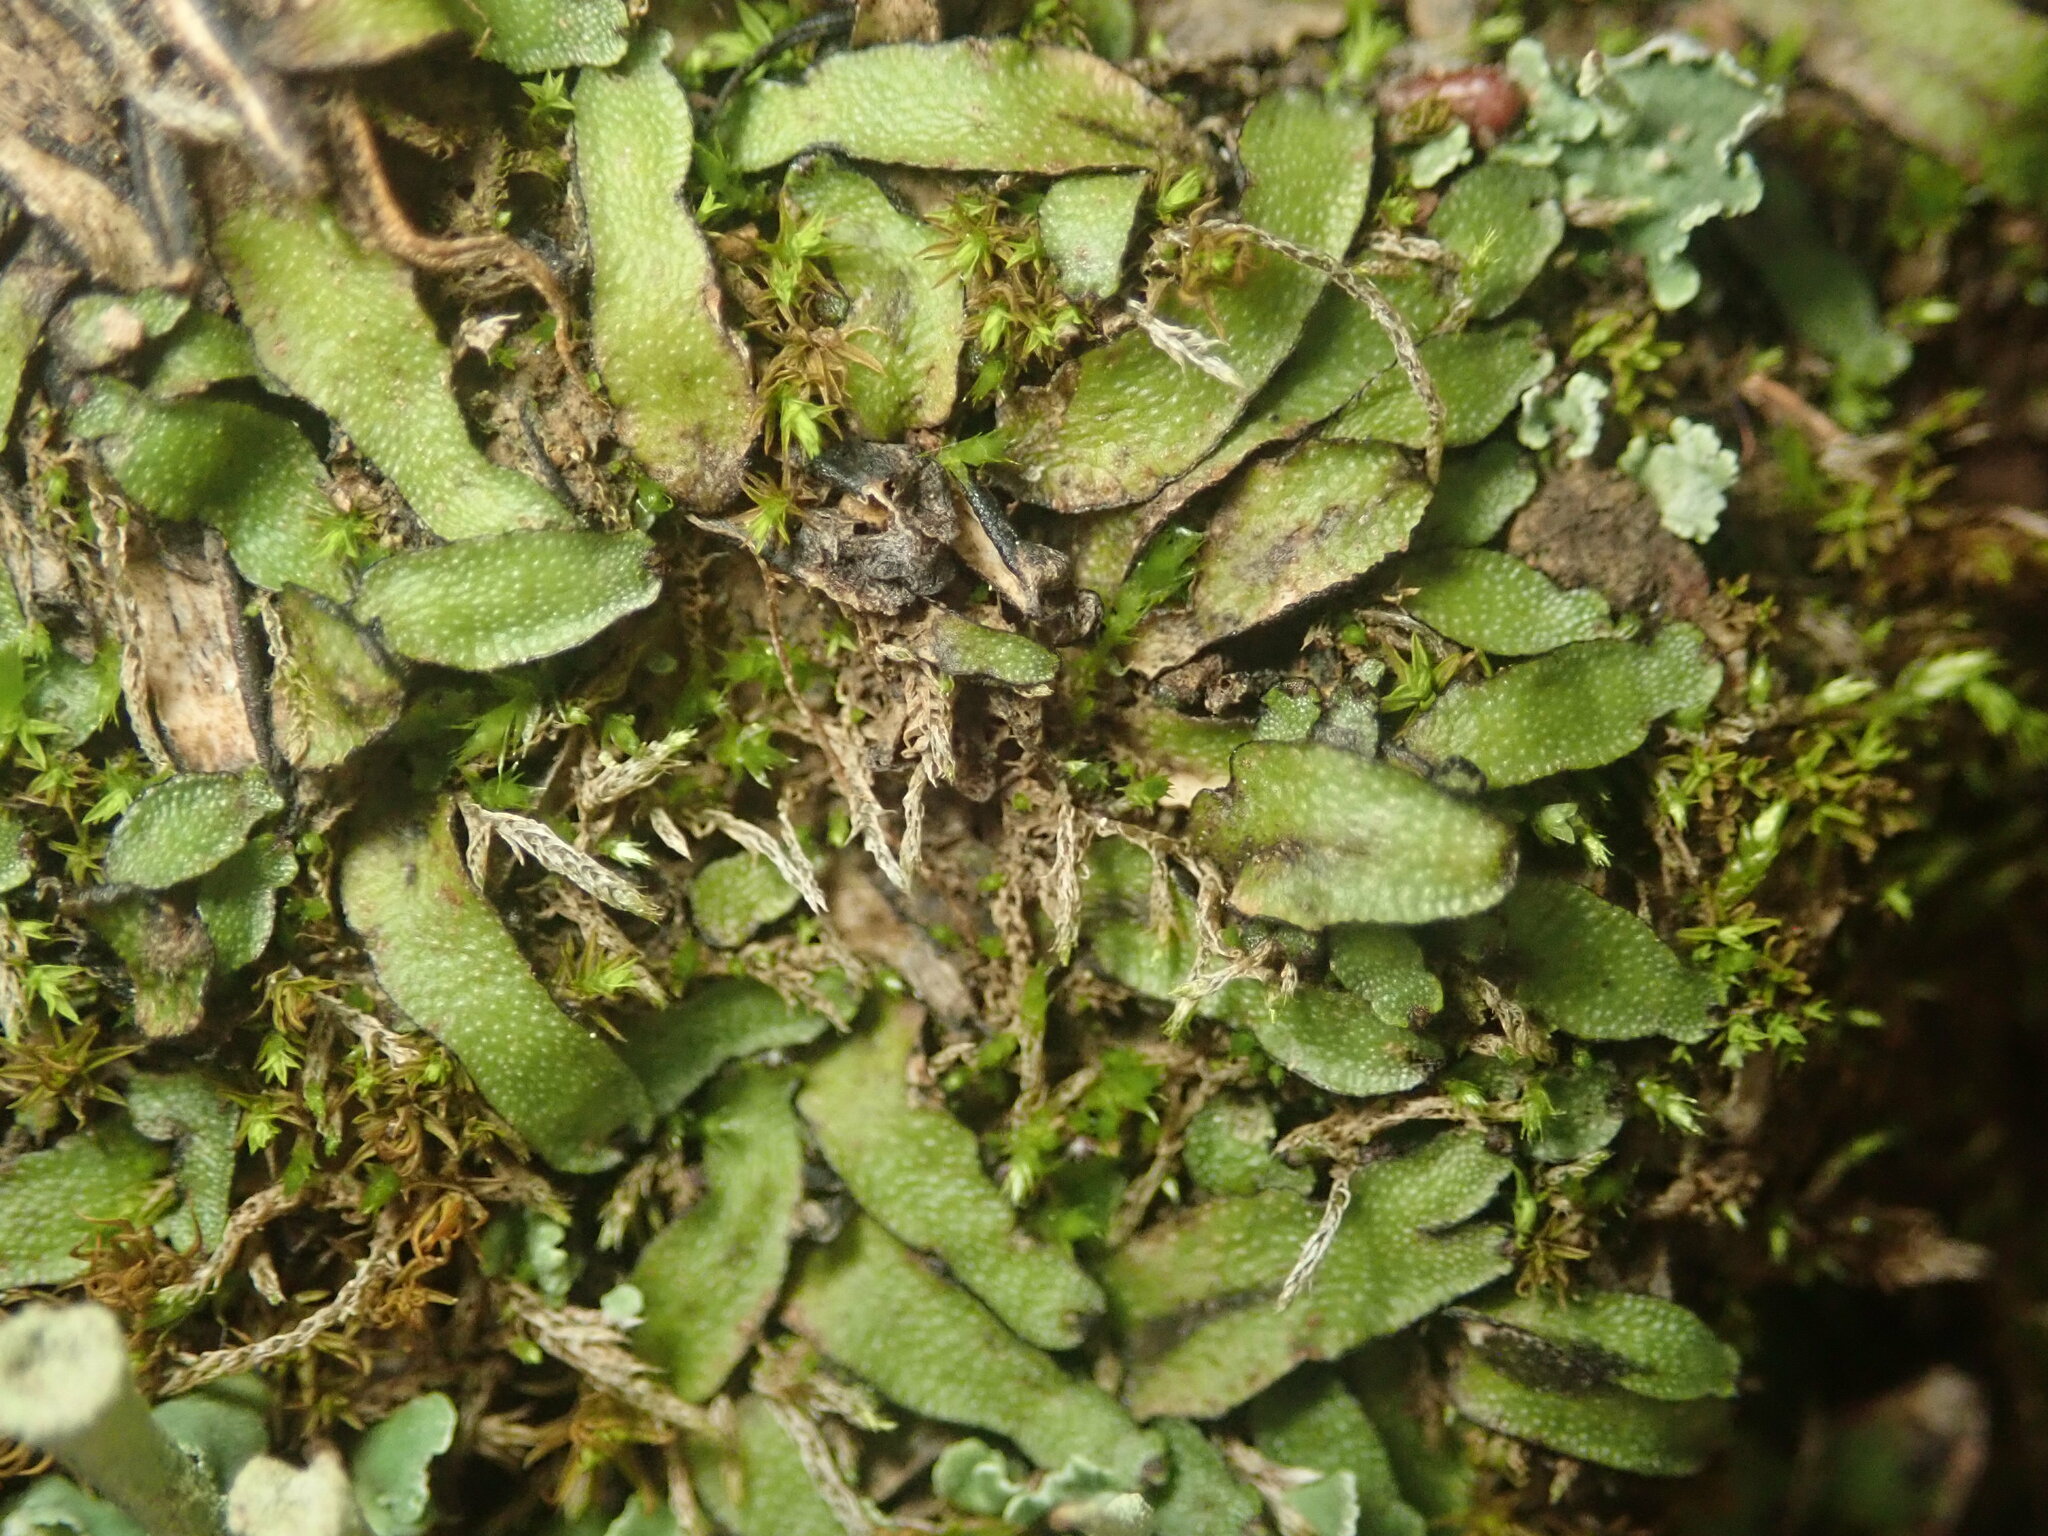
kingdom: Plantae
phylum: Marchantiophyta
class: Marchantiopsida
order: Marchantiales
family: Targioniaceae
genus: Targionia
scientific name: Targionia hypophylla
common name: Orobus-seed liverwort
